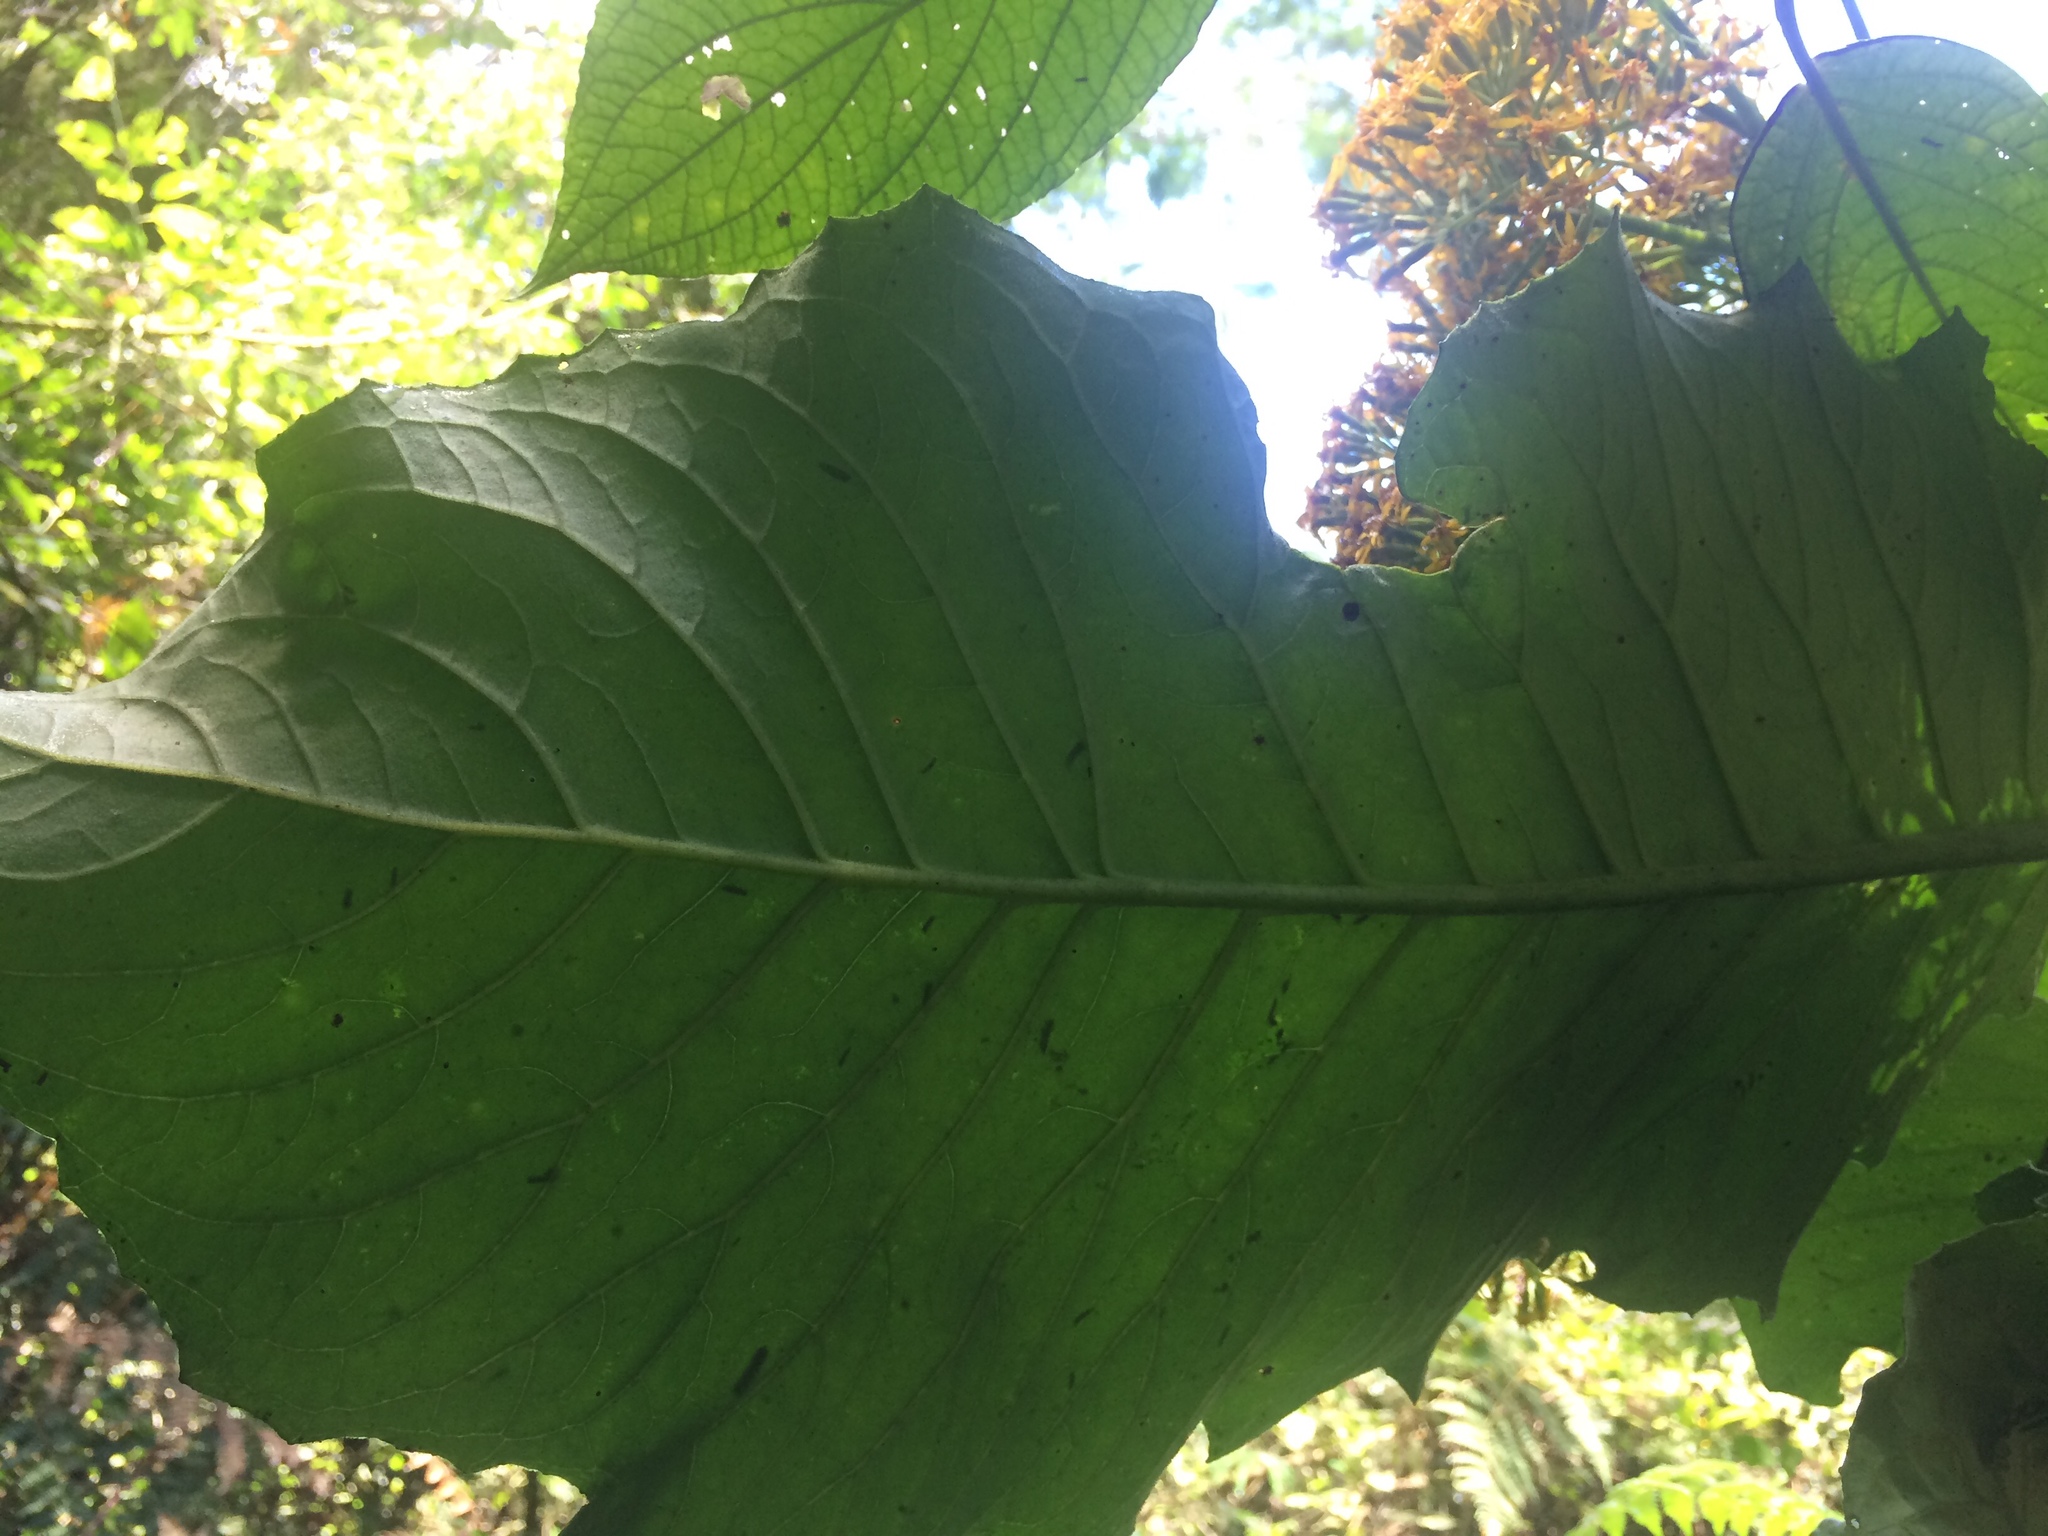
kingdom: Plantae
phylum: Tracheophyta
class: Magnoliopsida
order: Asterales
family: Asteraceae
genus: Telanthophora
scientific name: Telanthophora grandifolia
